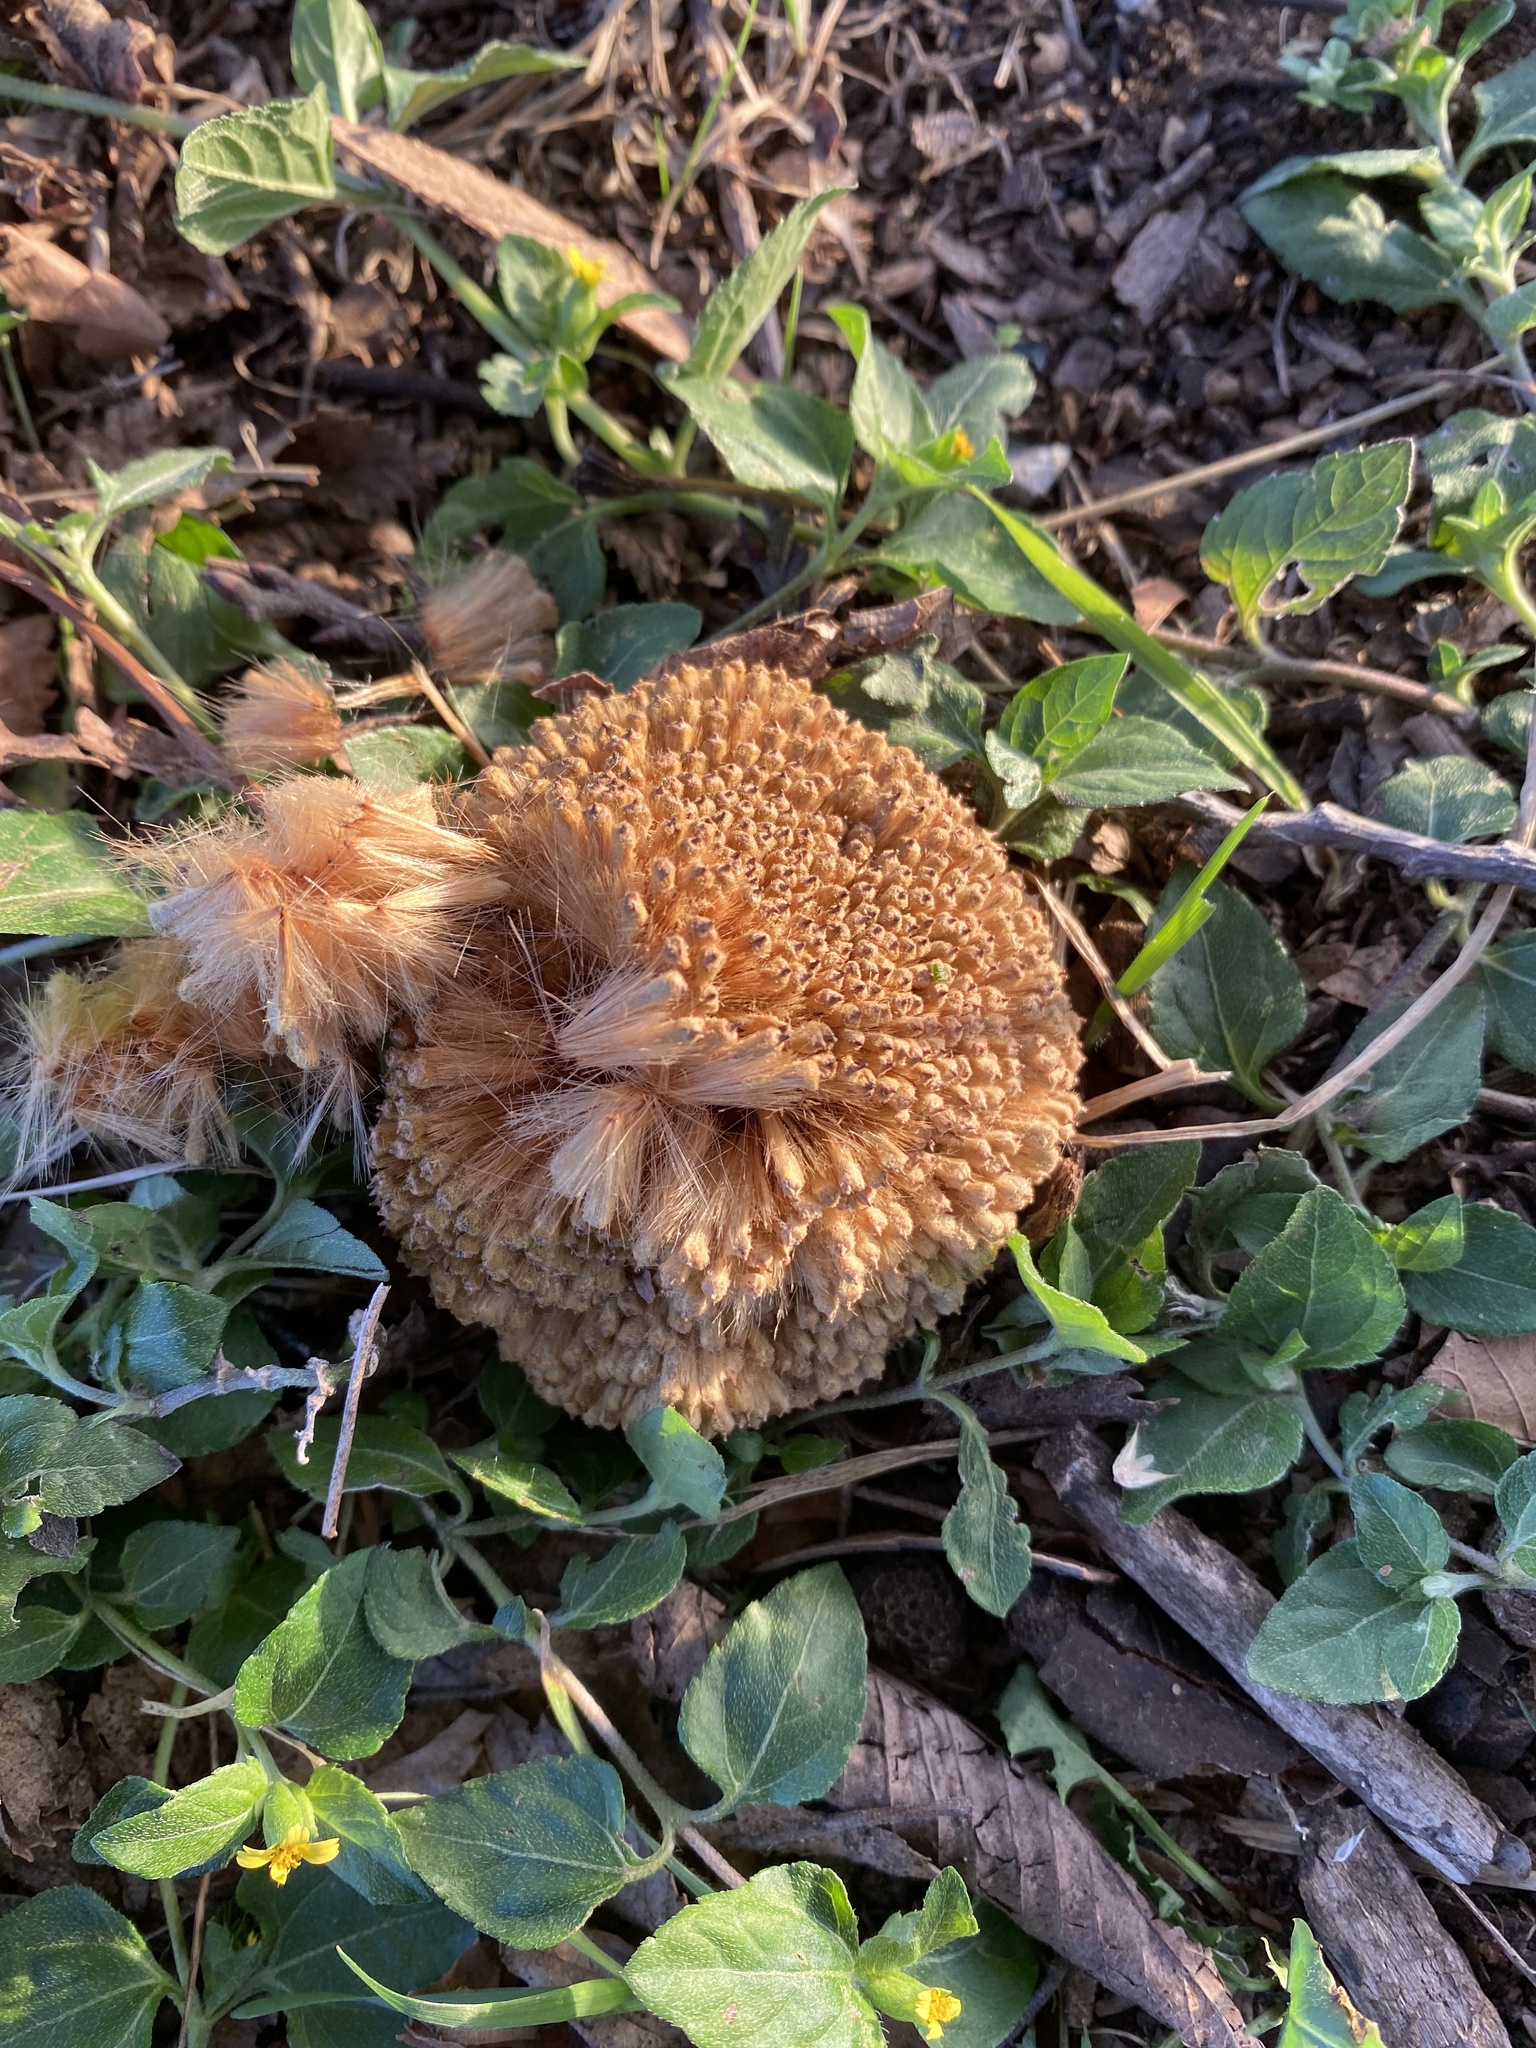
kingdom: Plantae
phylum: Tracheophyta
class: Magnoliopsida
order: Proteales
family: Platanaceae
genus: Platanus
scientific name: Platanus occidentalis
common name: American sycamore
